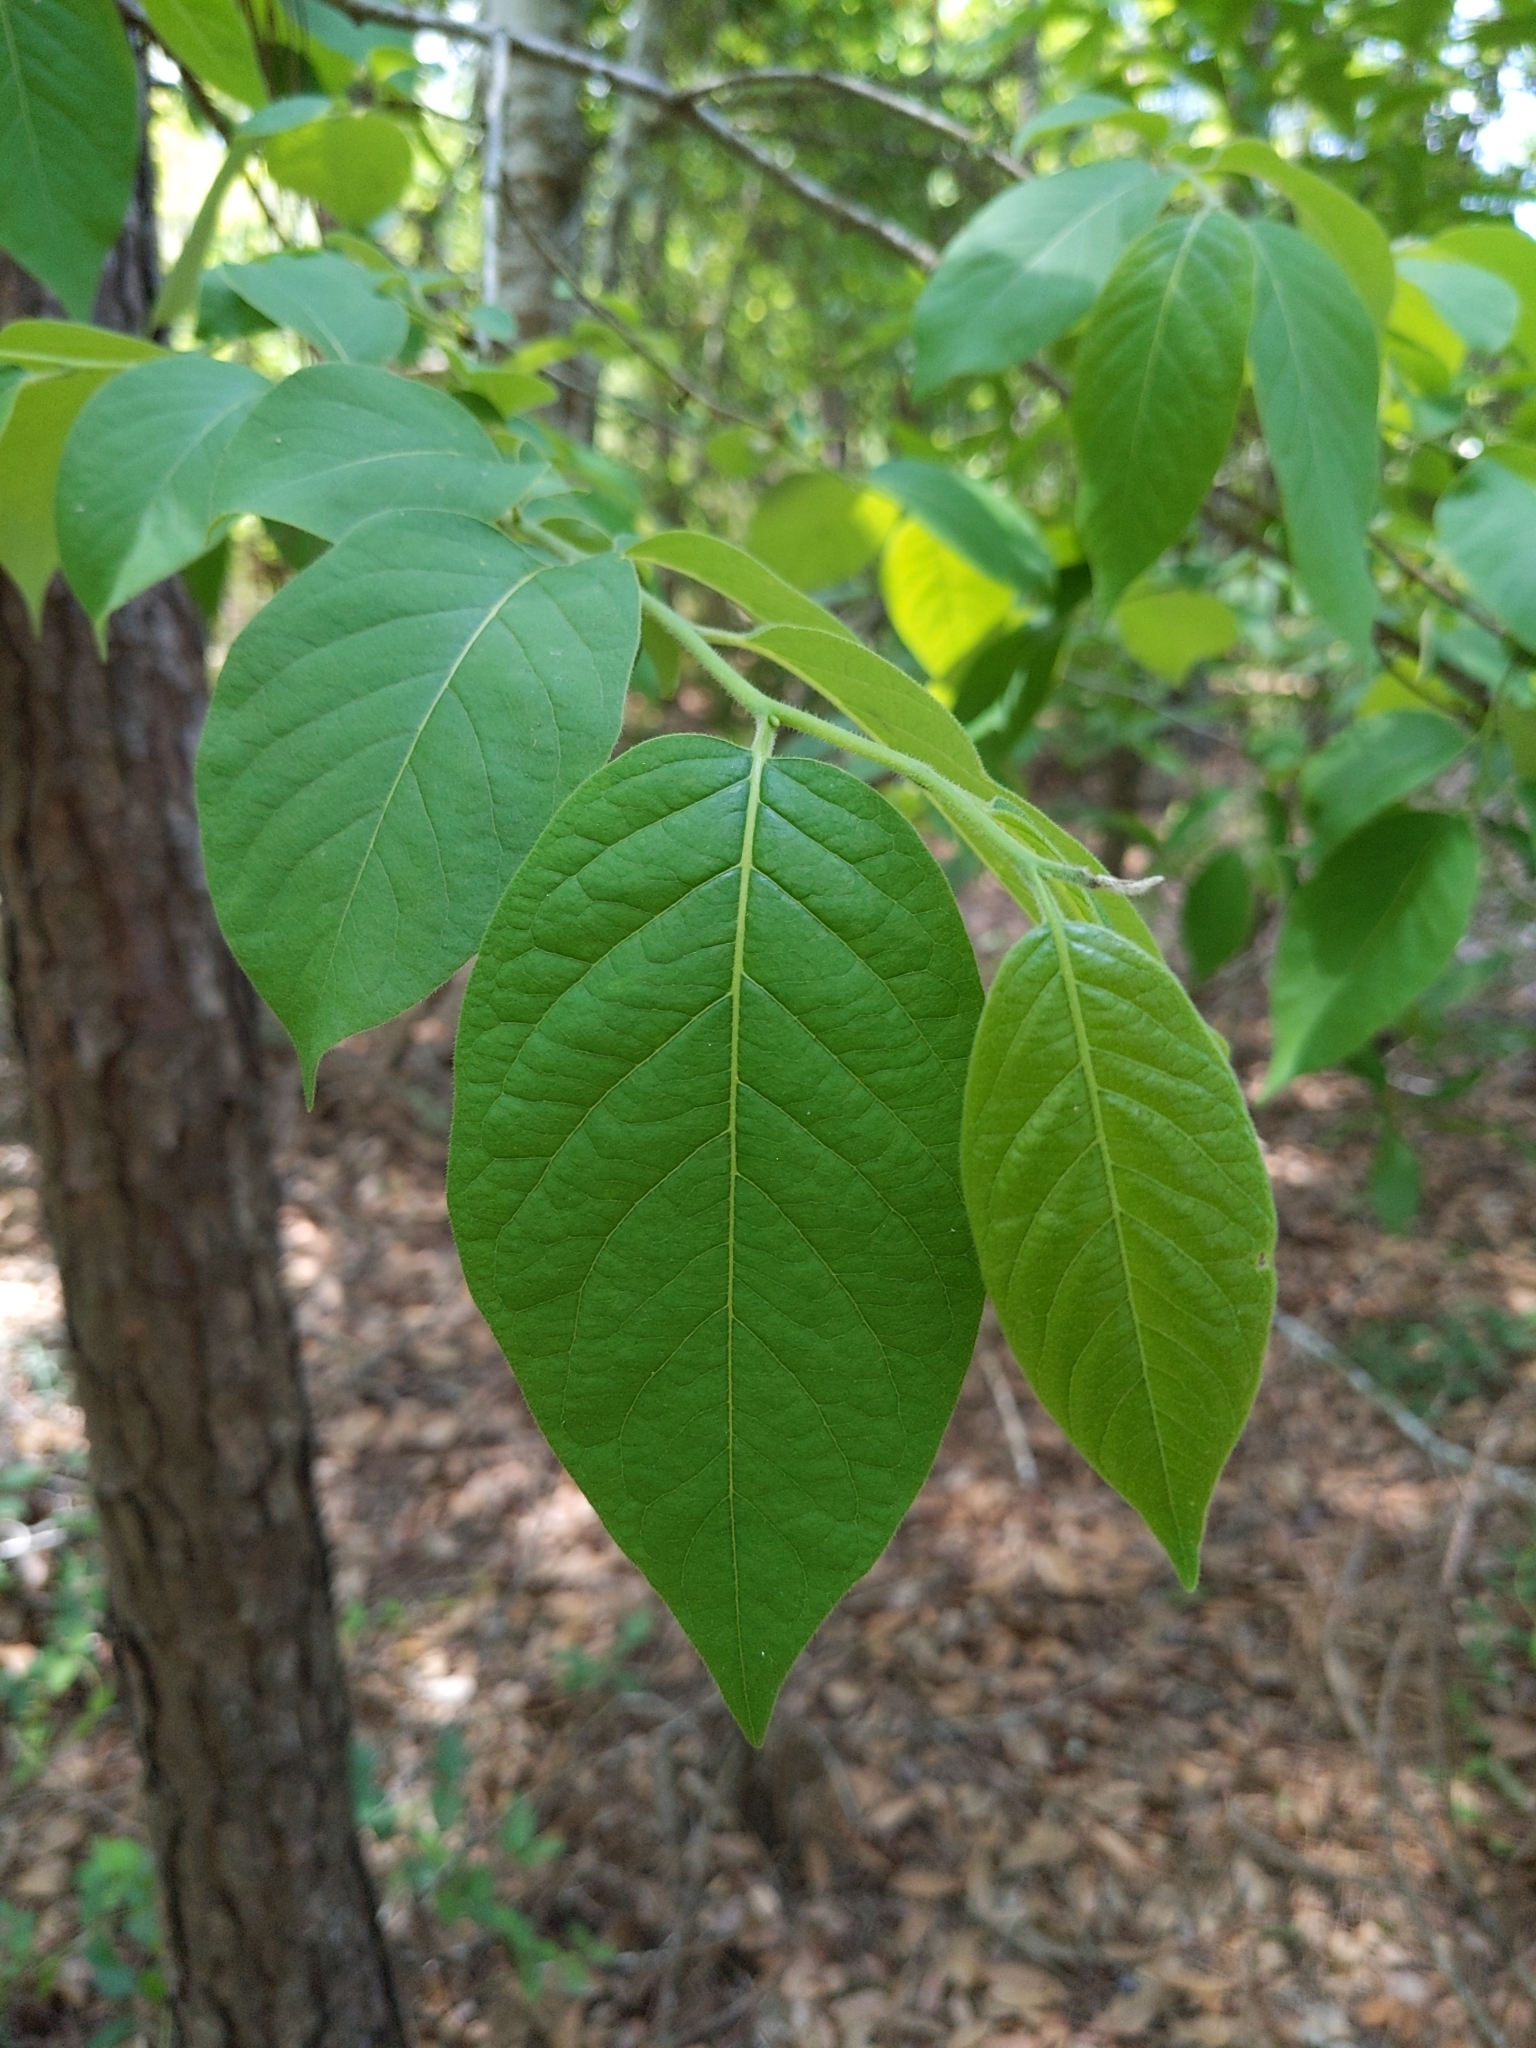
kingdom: Plantae
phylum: Tracheophyta
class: Magnoliopsida
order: Ericales
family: Ebenaceae
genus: Diospyros
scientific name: Diospyros virginiana
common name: Persimmon
